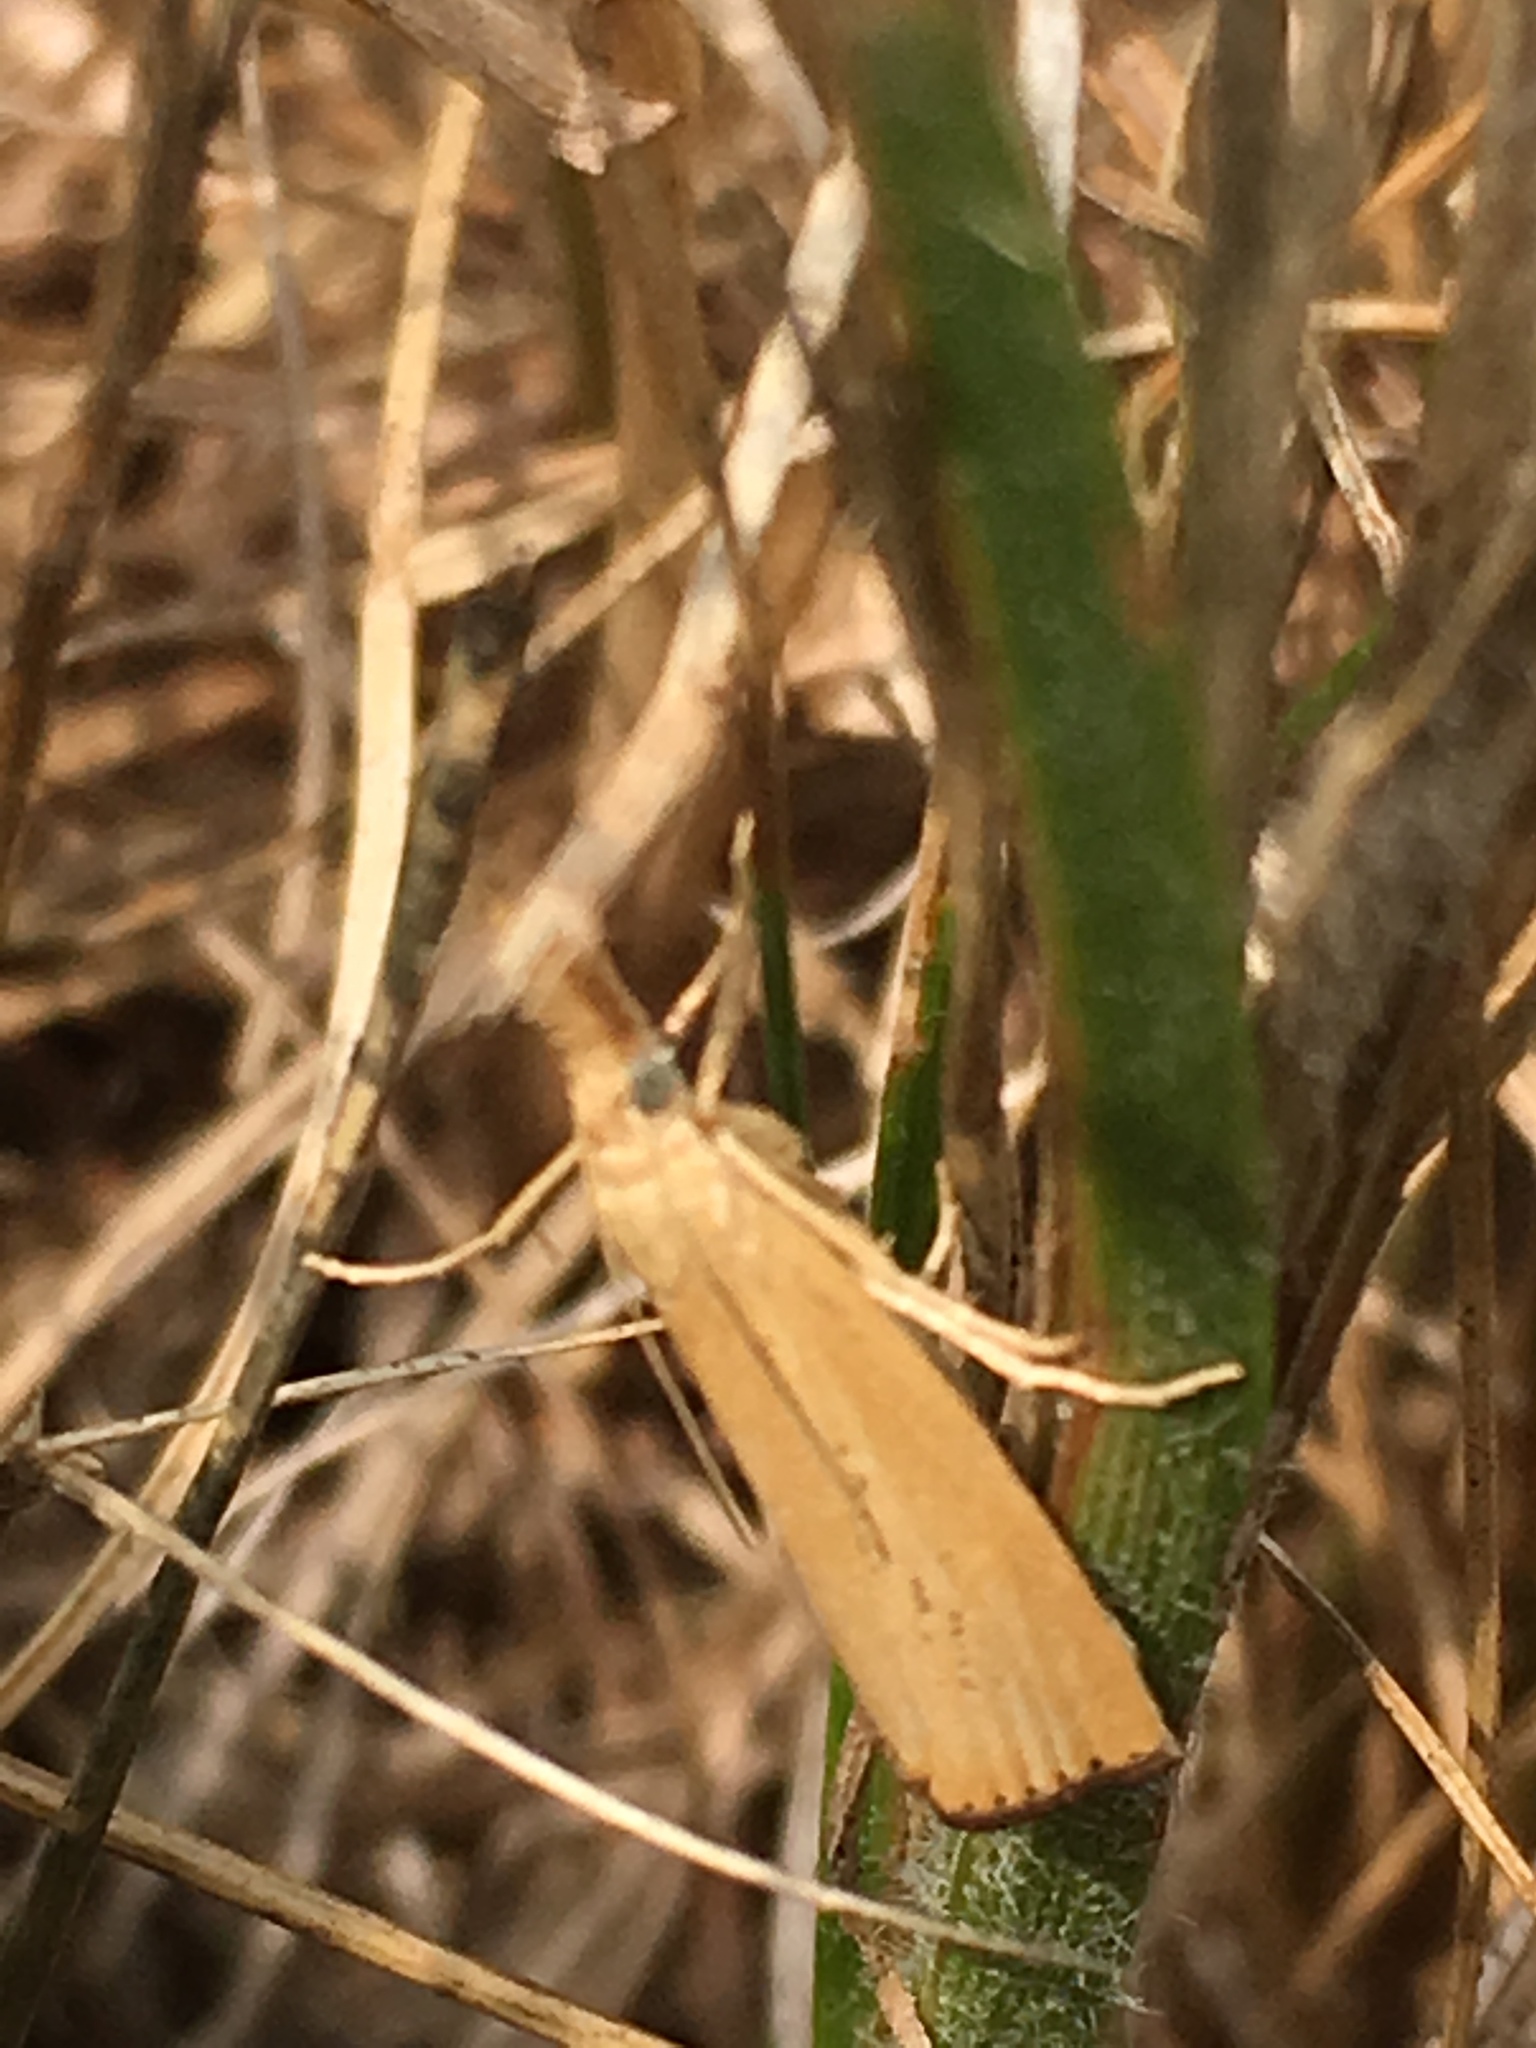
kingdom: Animalia
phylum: Arthropoda
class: Insecta
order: Lepidoptera
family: Crambidae
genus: Agriphila
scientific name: Agriphila straminella
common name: Straw grass-veneer
